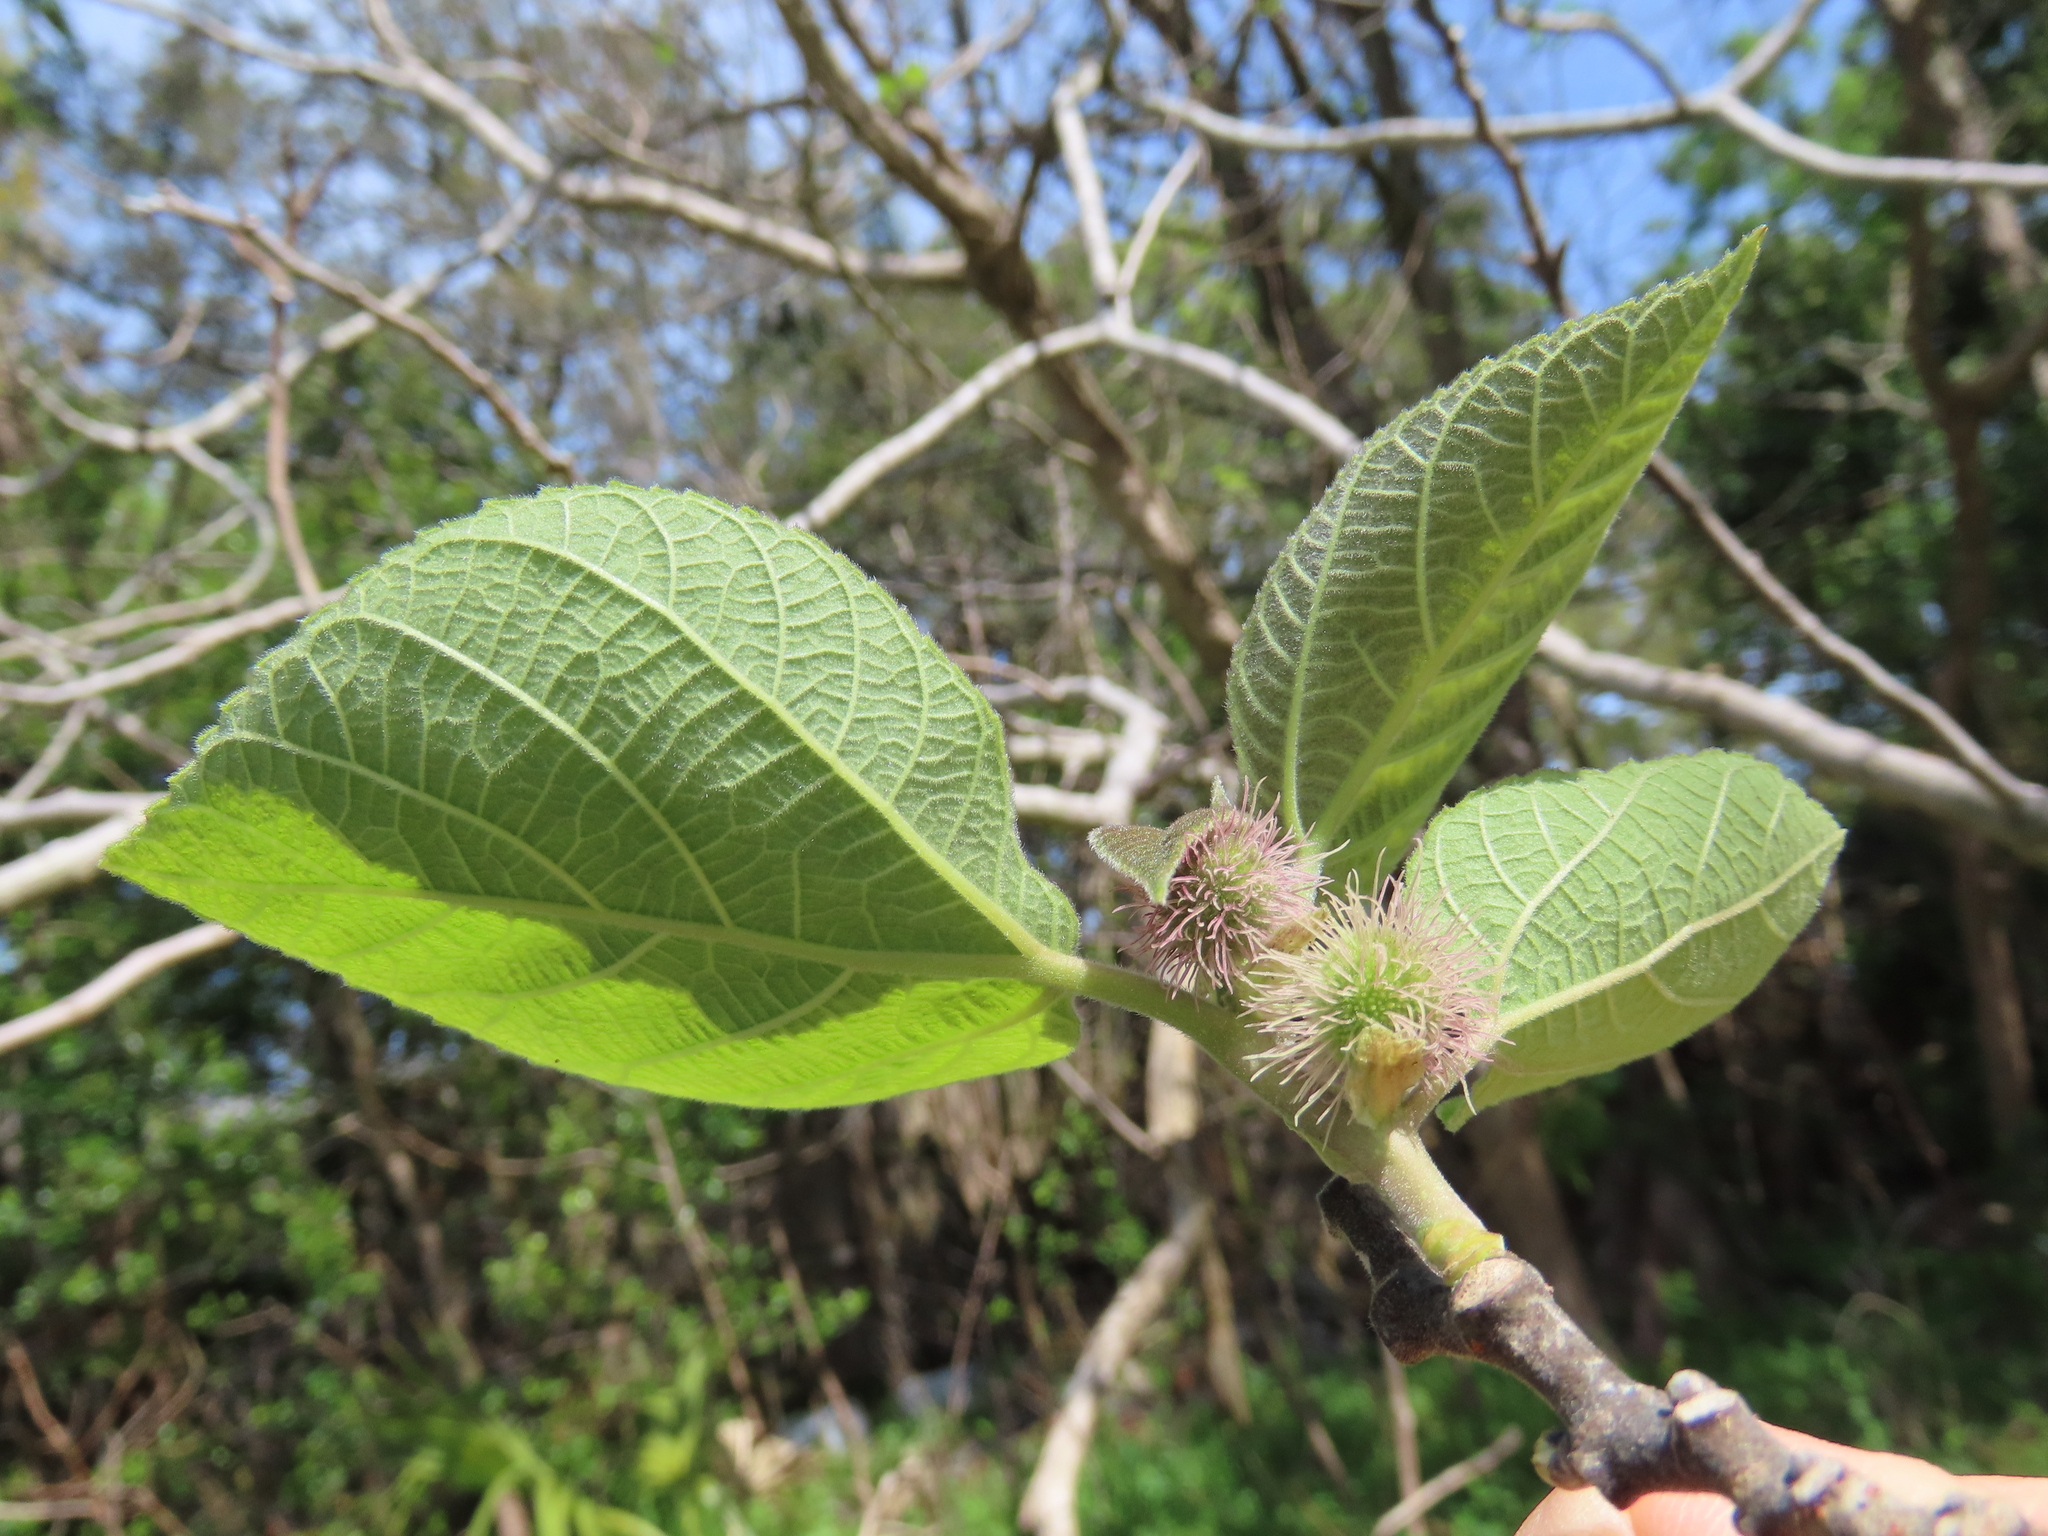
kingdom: Plantae
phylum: Tracheophyta
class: Magnoliopsida
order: Rosales
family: Moraceae
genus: Broussonetia
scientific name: Broussonetia papyrifera
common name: Paper mulberry
